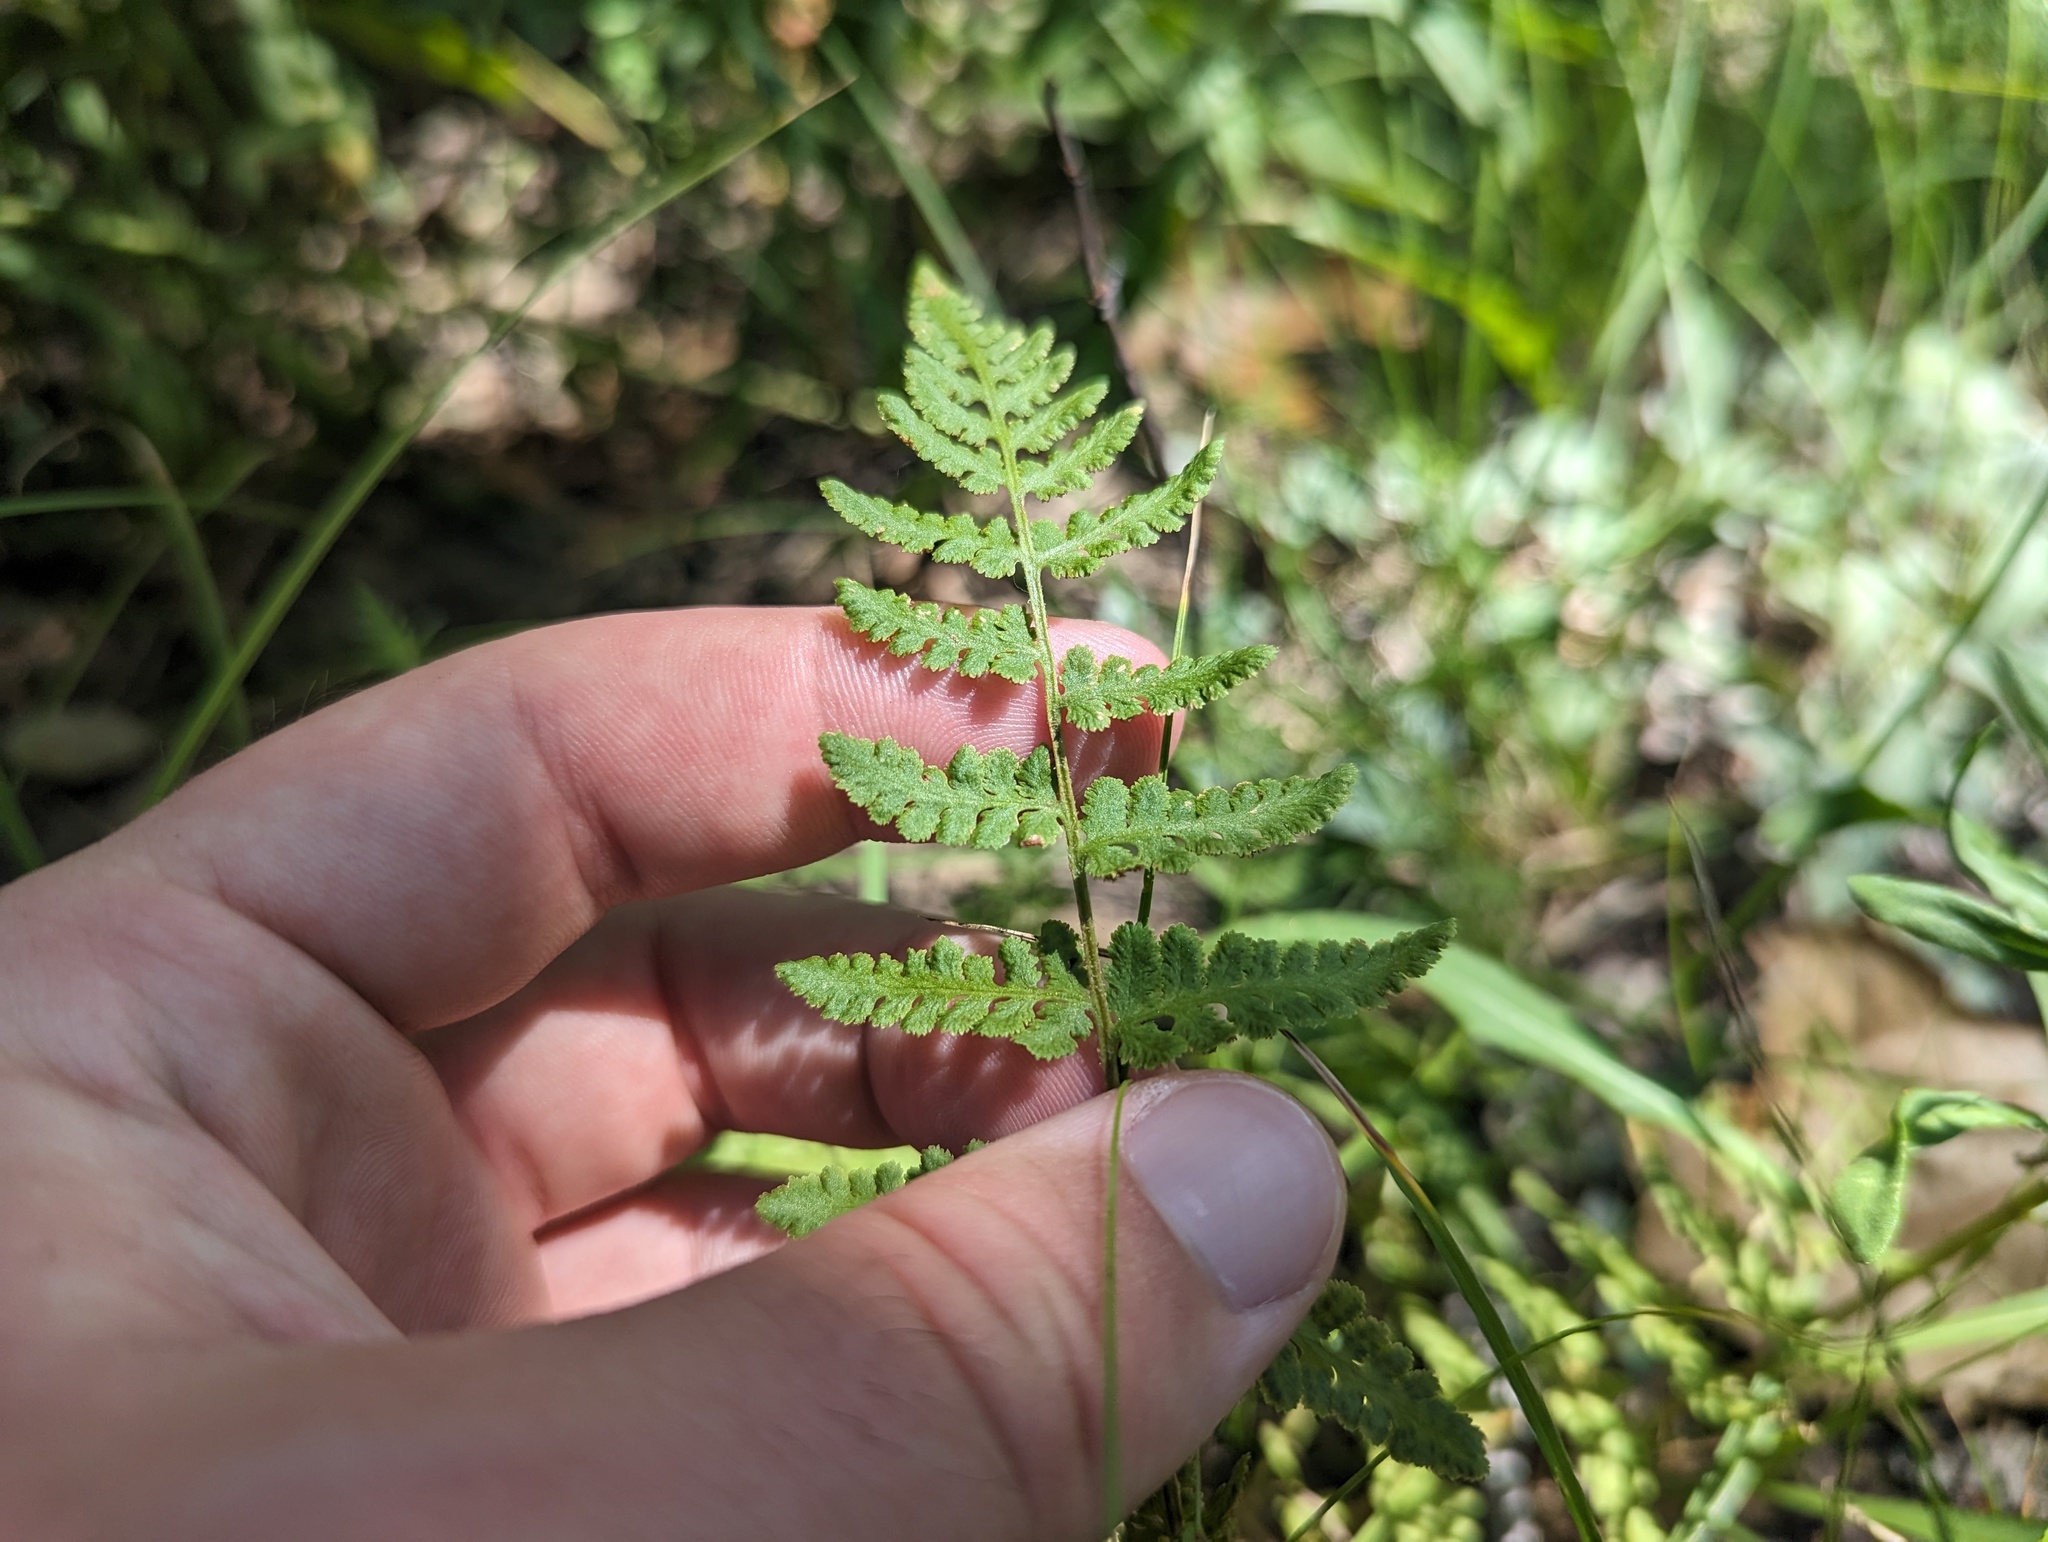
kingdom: Plantae
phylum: Tracheophyta
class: Polypodiopsida
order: Polypodiales
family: Woodsiaceae
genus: Physematium
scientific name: Physematium obtusum
